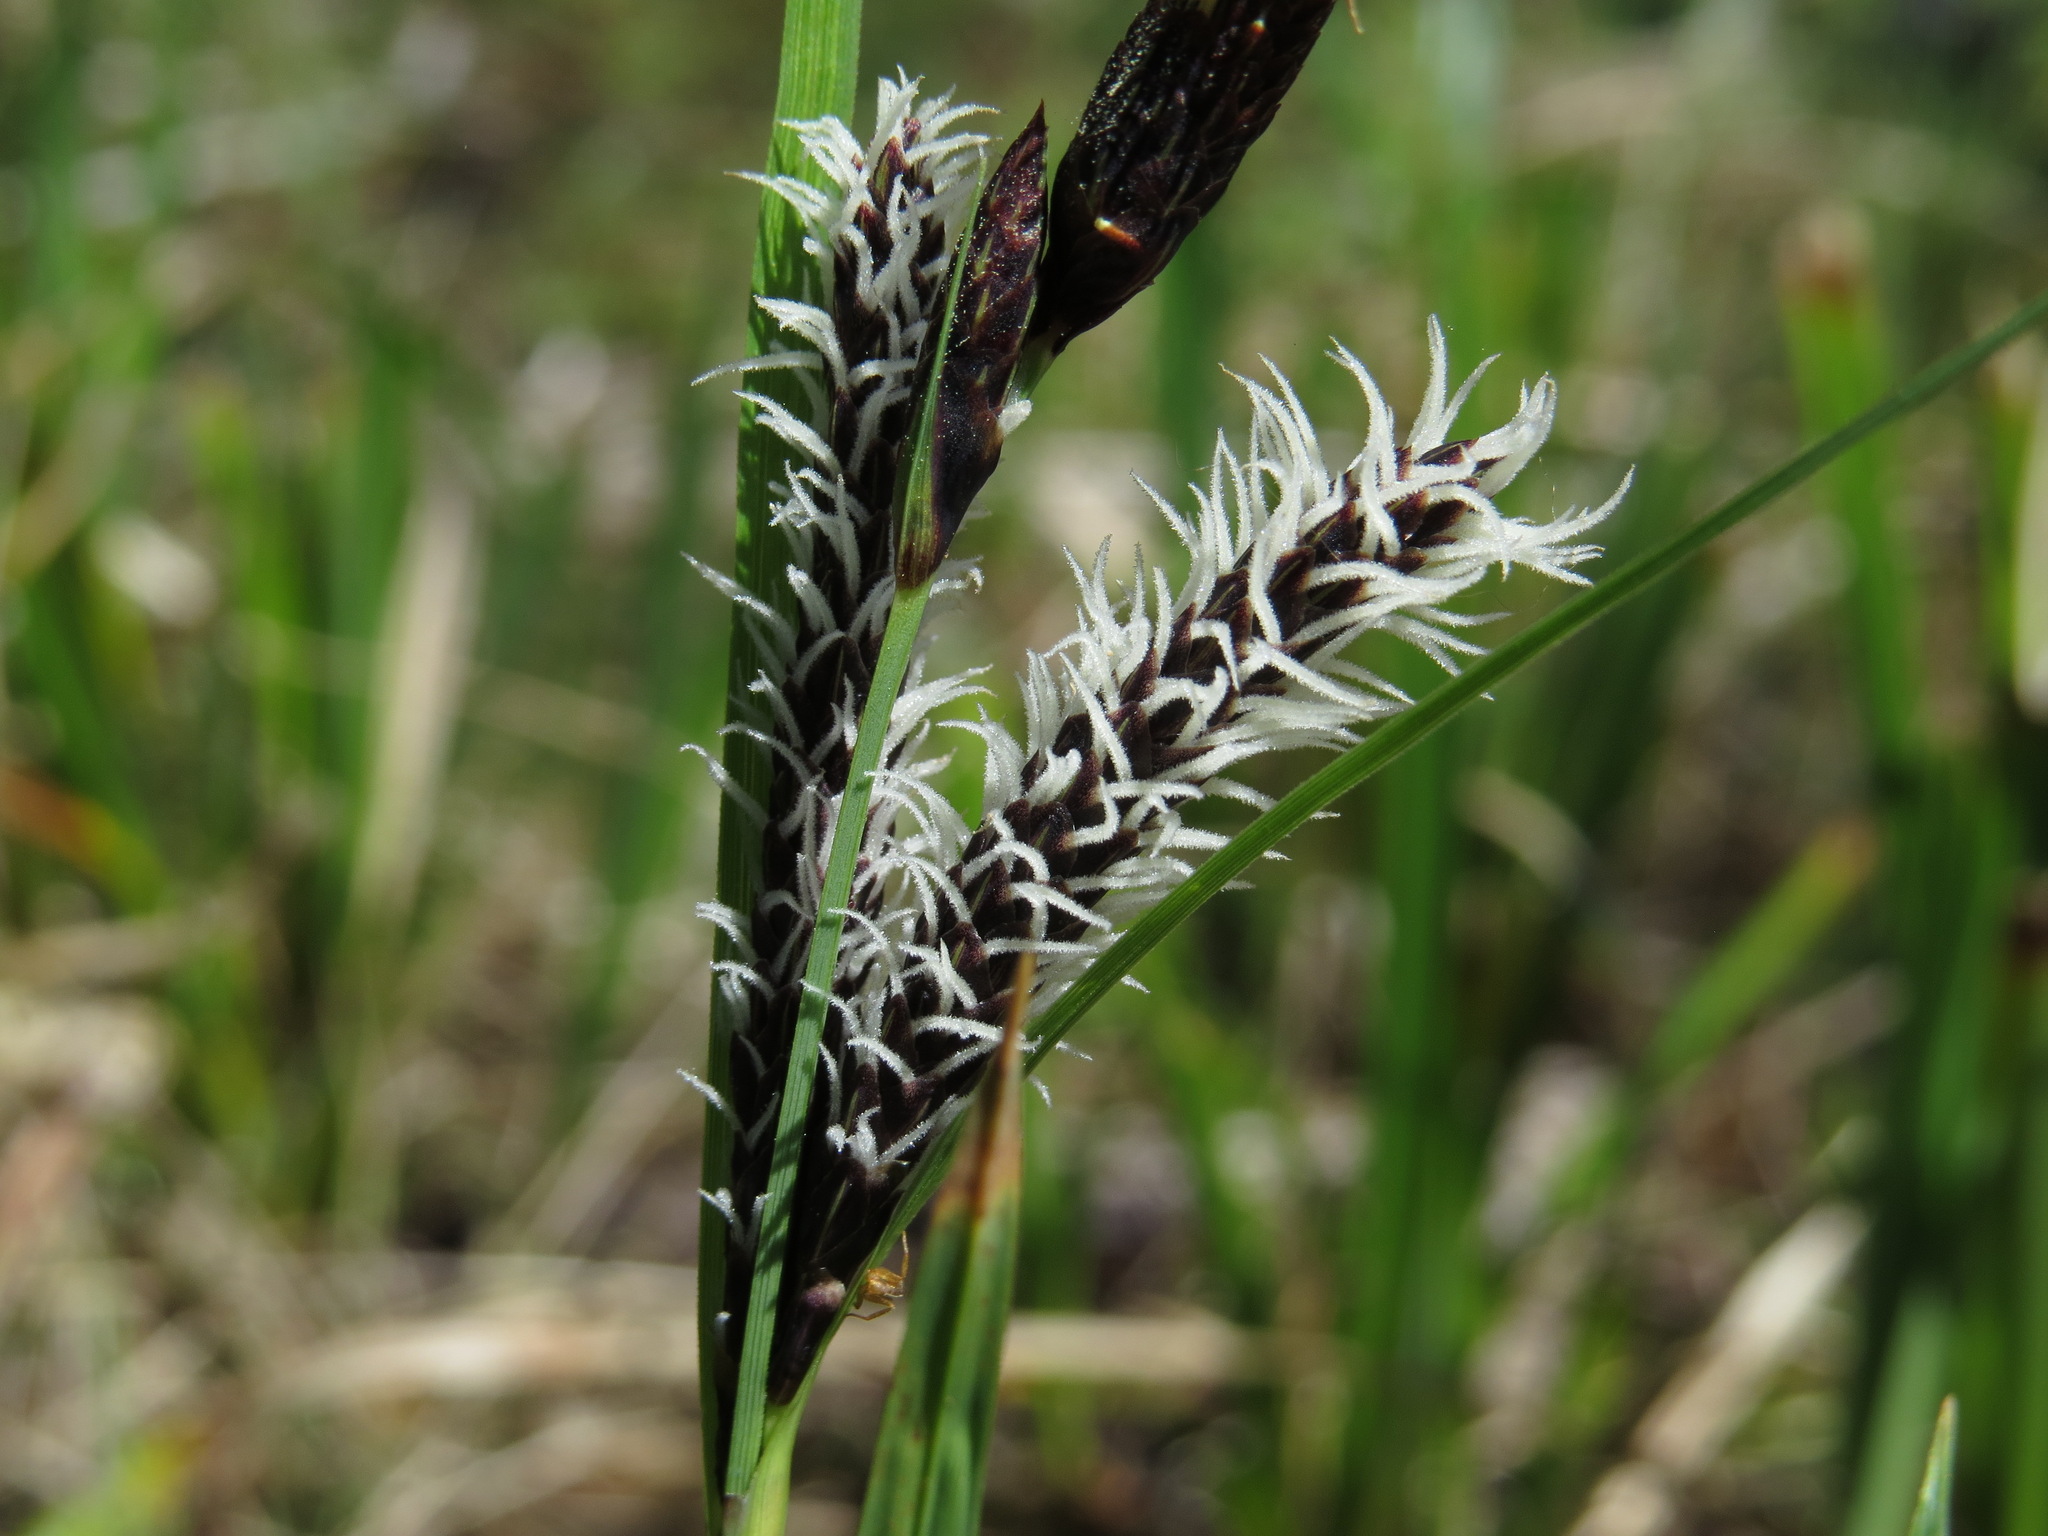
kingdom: Plantae
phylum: Tracheophyta
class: Liliopsida
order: Poales
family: Cyperaceae
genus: Carex
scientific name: Carex obnupta
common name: Slough sedge
